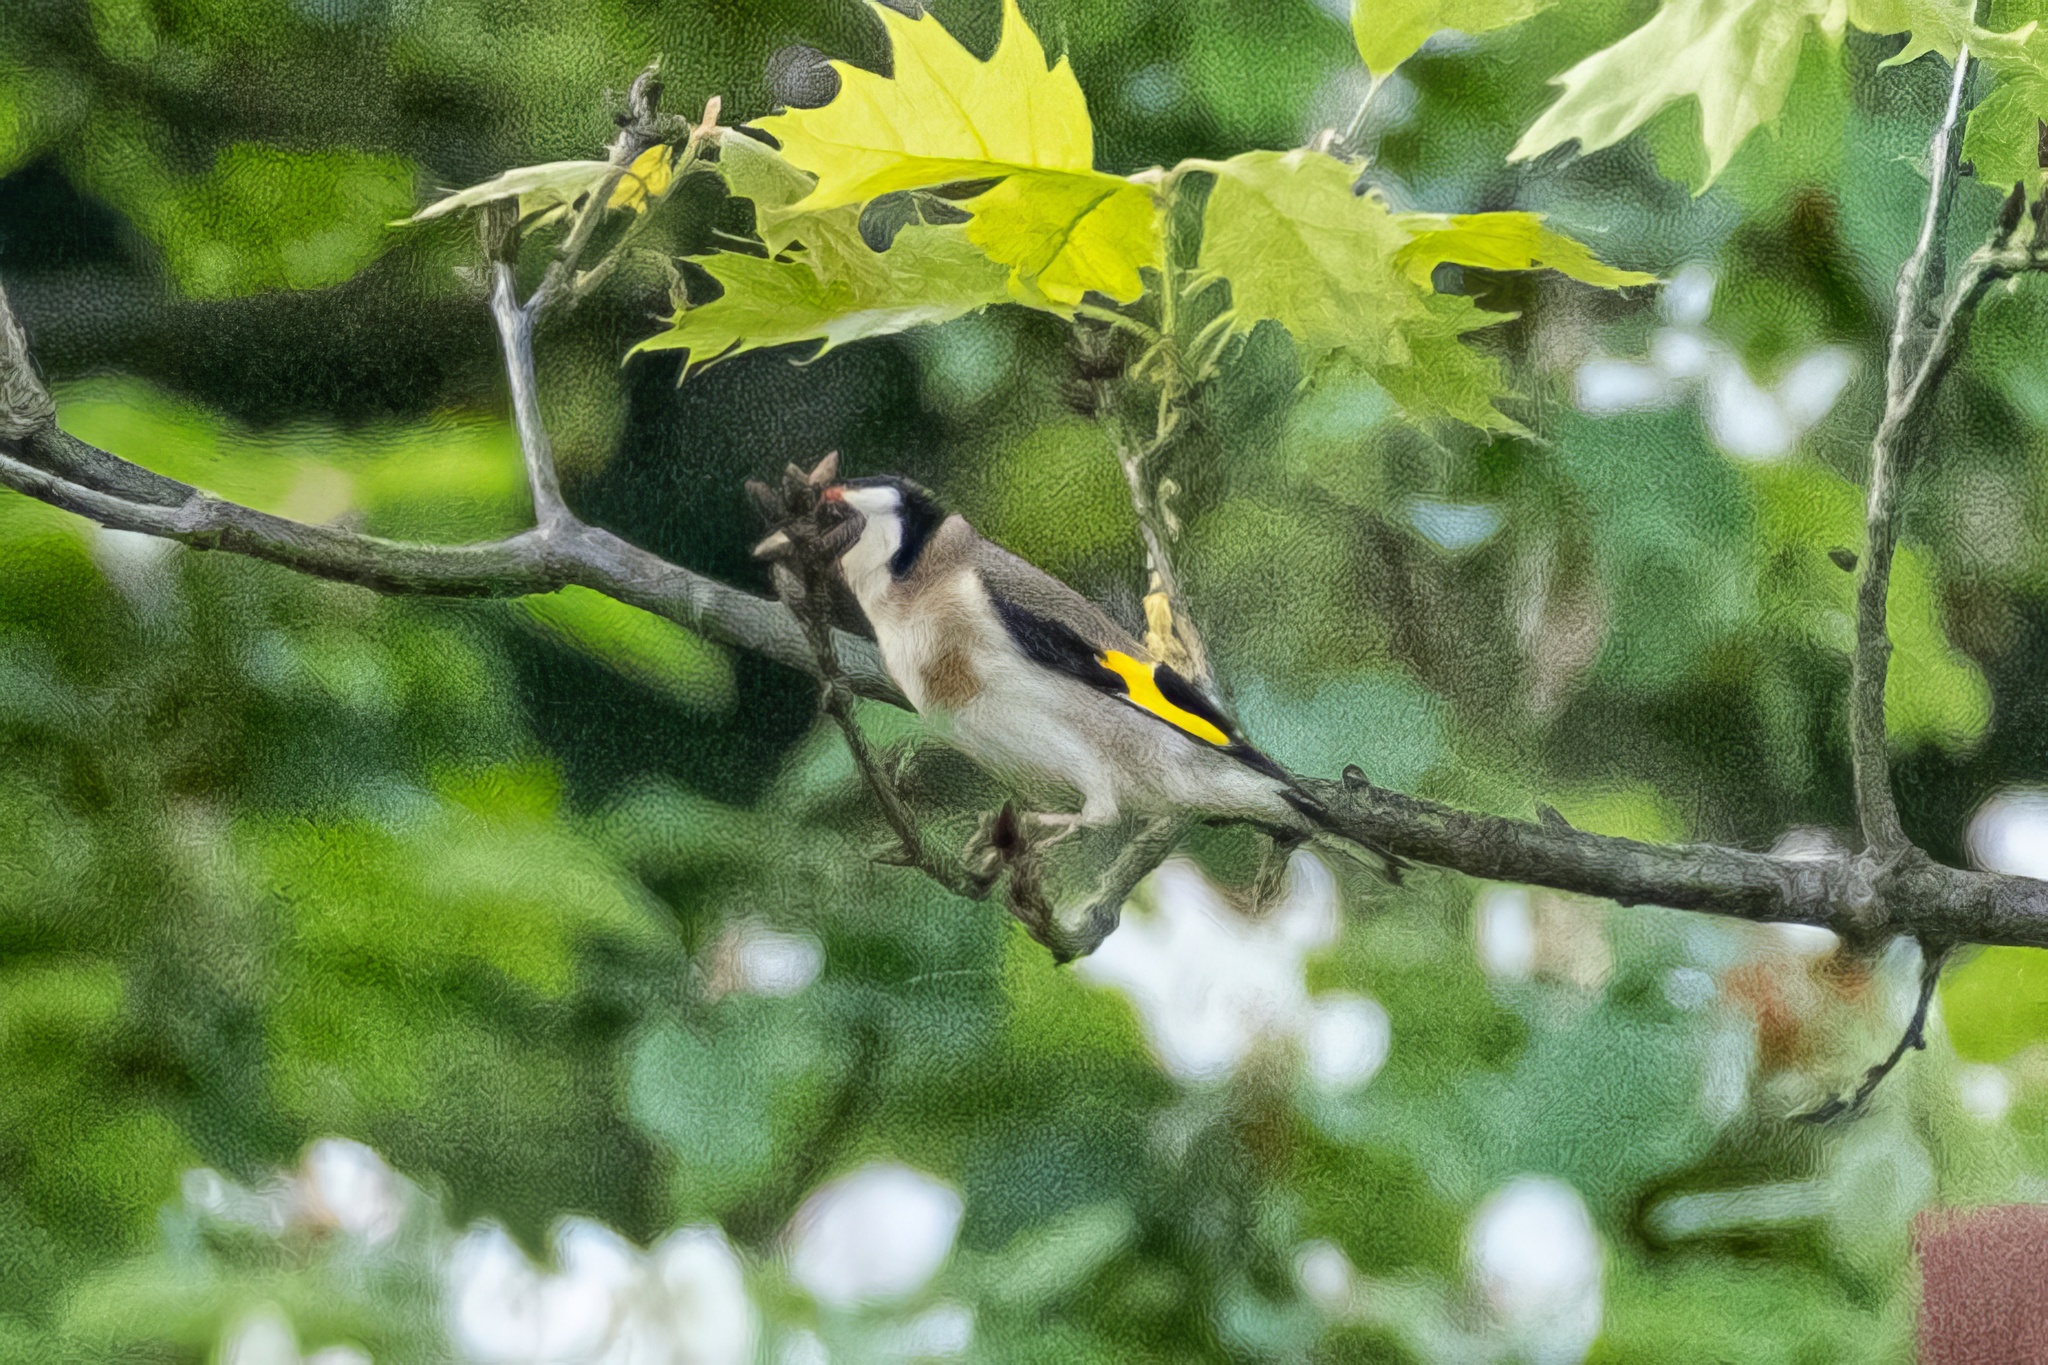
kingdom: Animalia
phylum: Chordata
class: Aves
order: Passeriformes
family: Fringillidae
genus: Carduelis
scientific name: Carduelis carduelis
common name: European goldfinch
